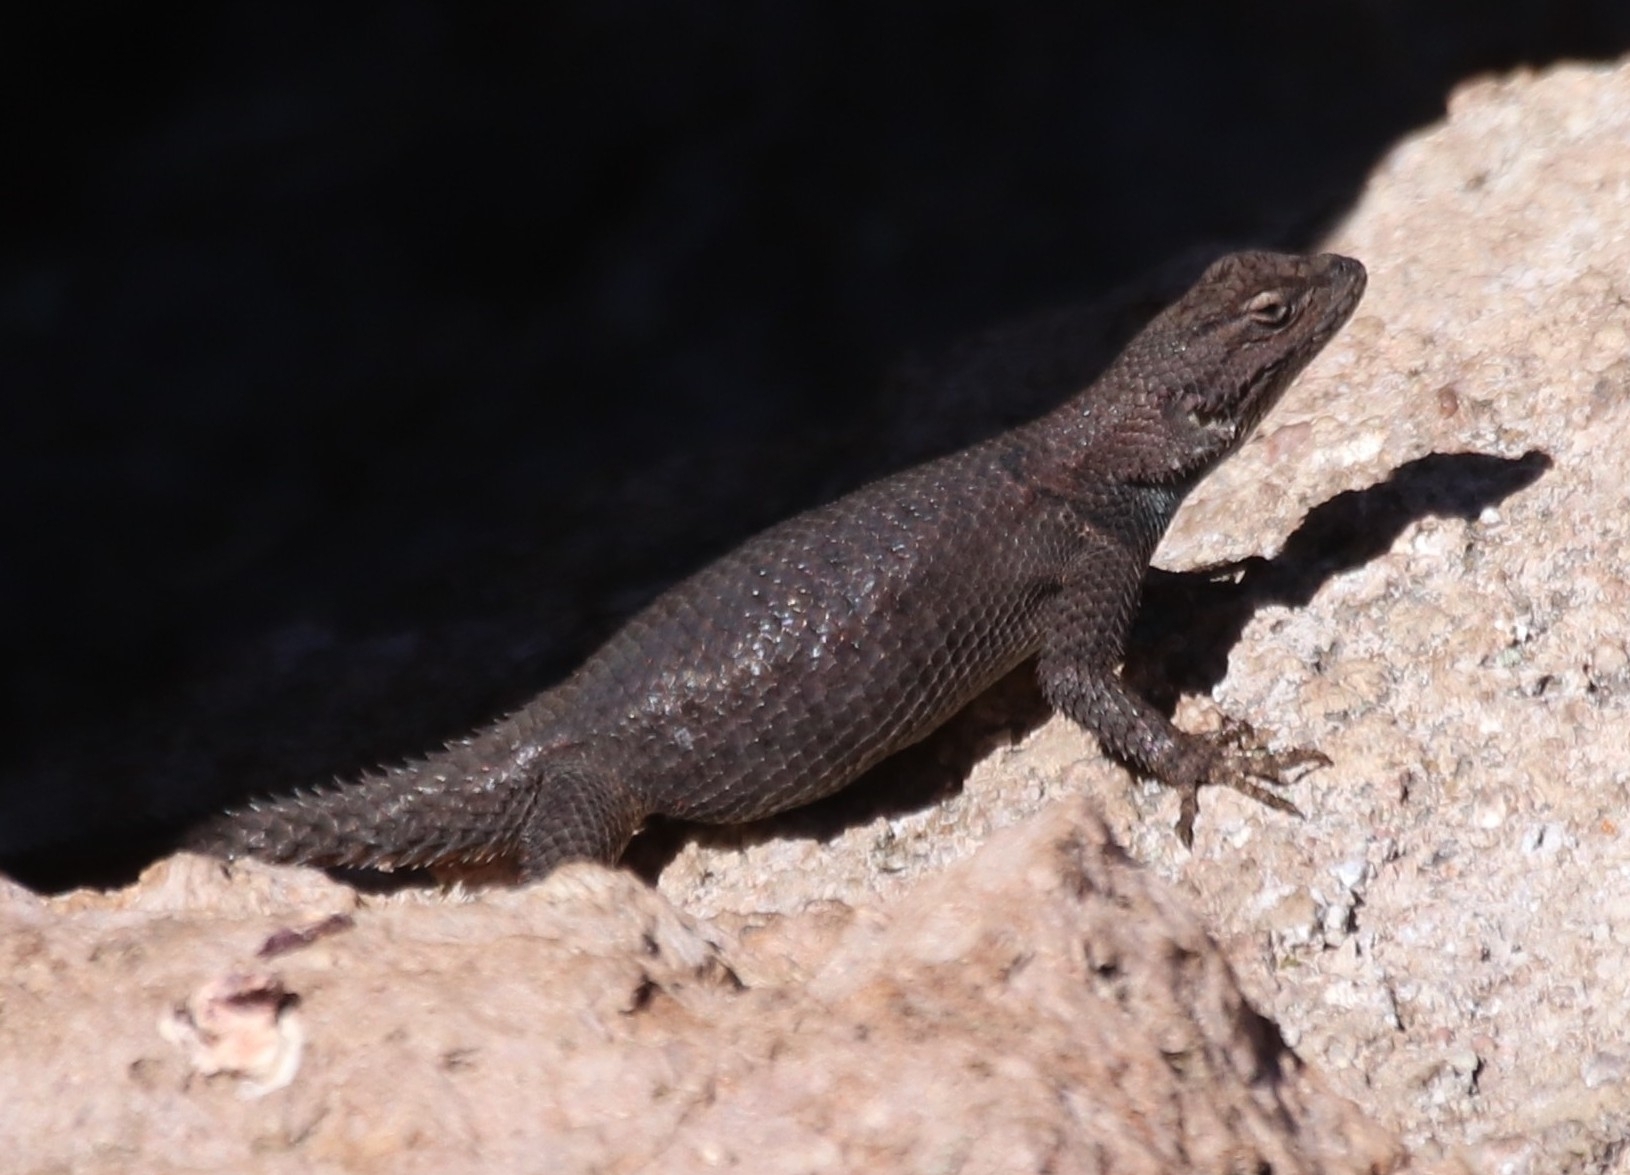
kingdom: Animalia
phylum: Chordata
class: Squamata
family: Phrynosomatidae
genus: Sceloporus
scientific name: Sceloporus jarrovii
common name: Yarrow's spiny lizard
